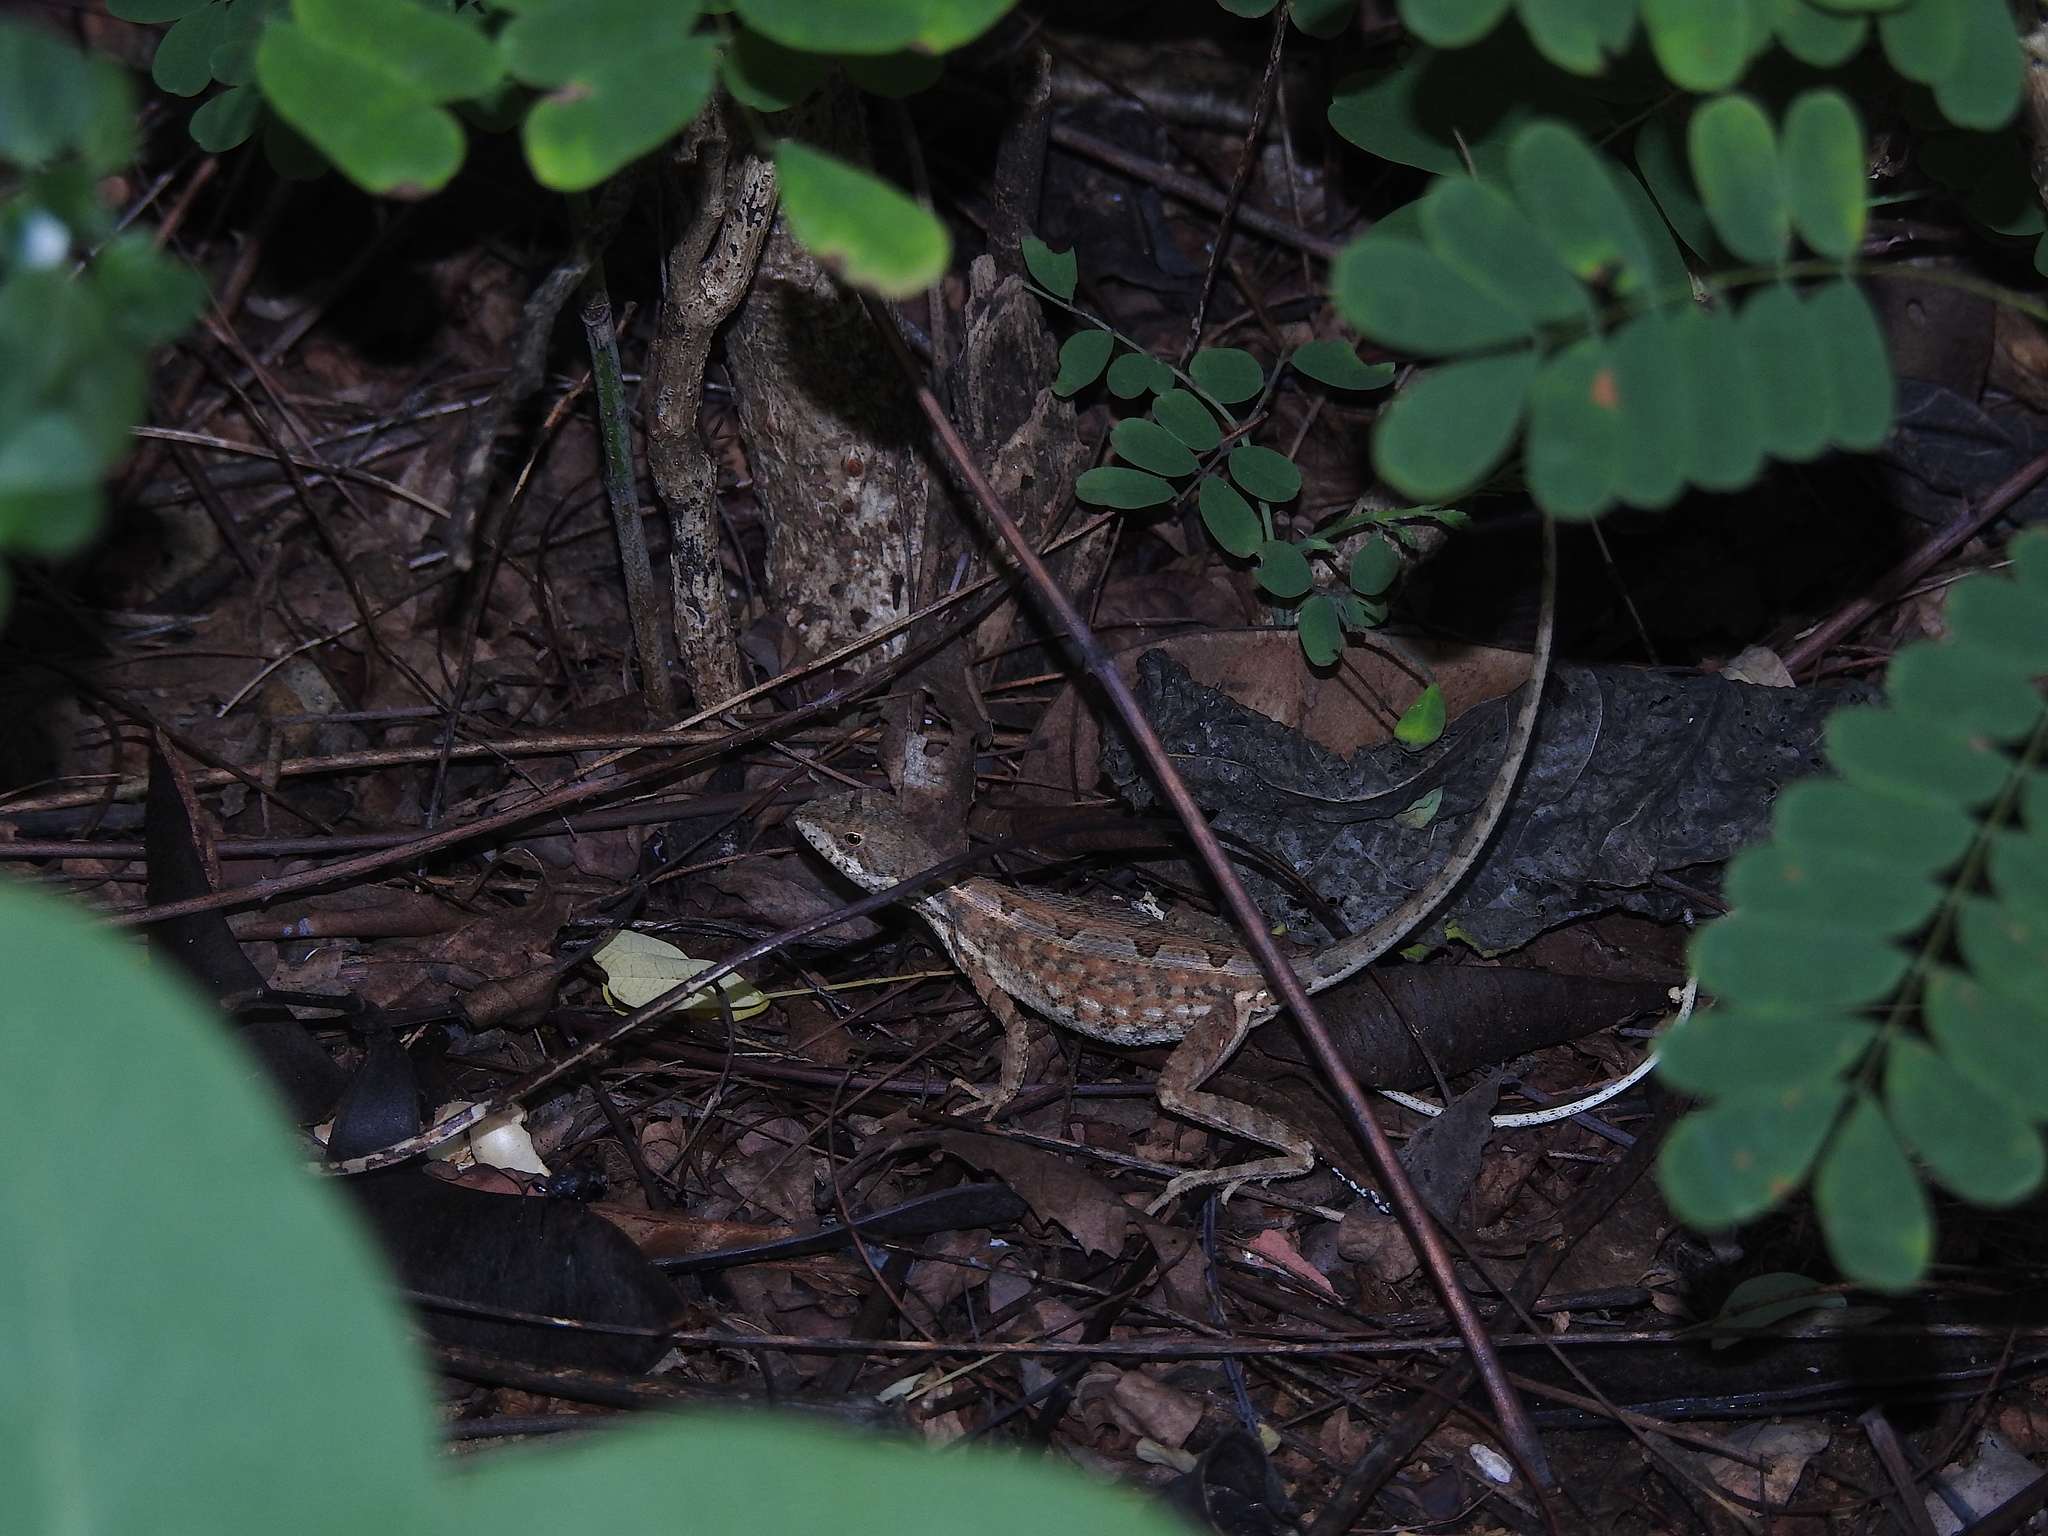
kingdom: Animalia
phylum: Chordata
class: Squamata
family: Agamidae
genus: Sitana
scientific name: Sitana marudhamneydhal
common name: Attenborough’s fan-throated lizard
